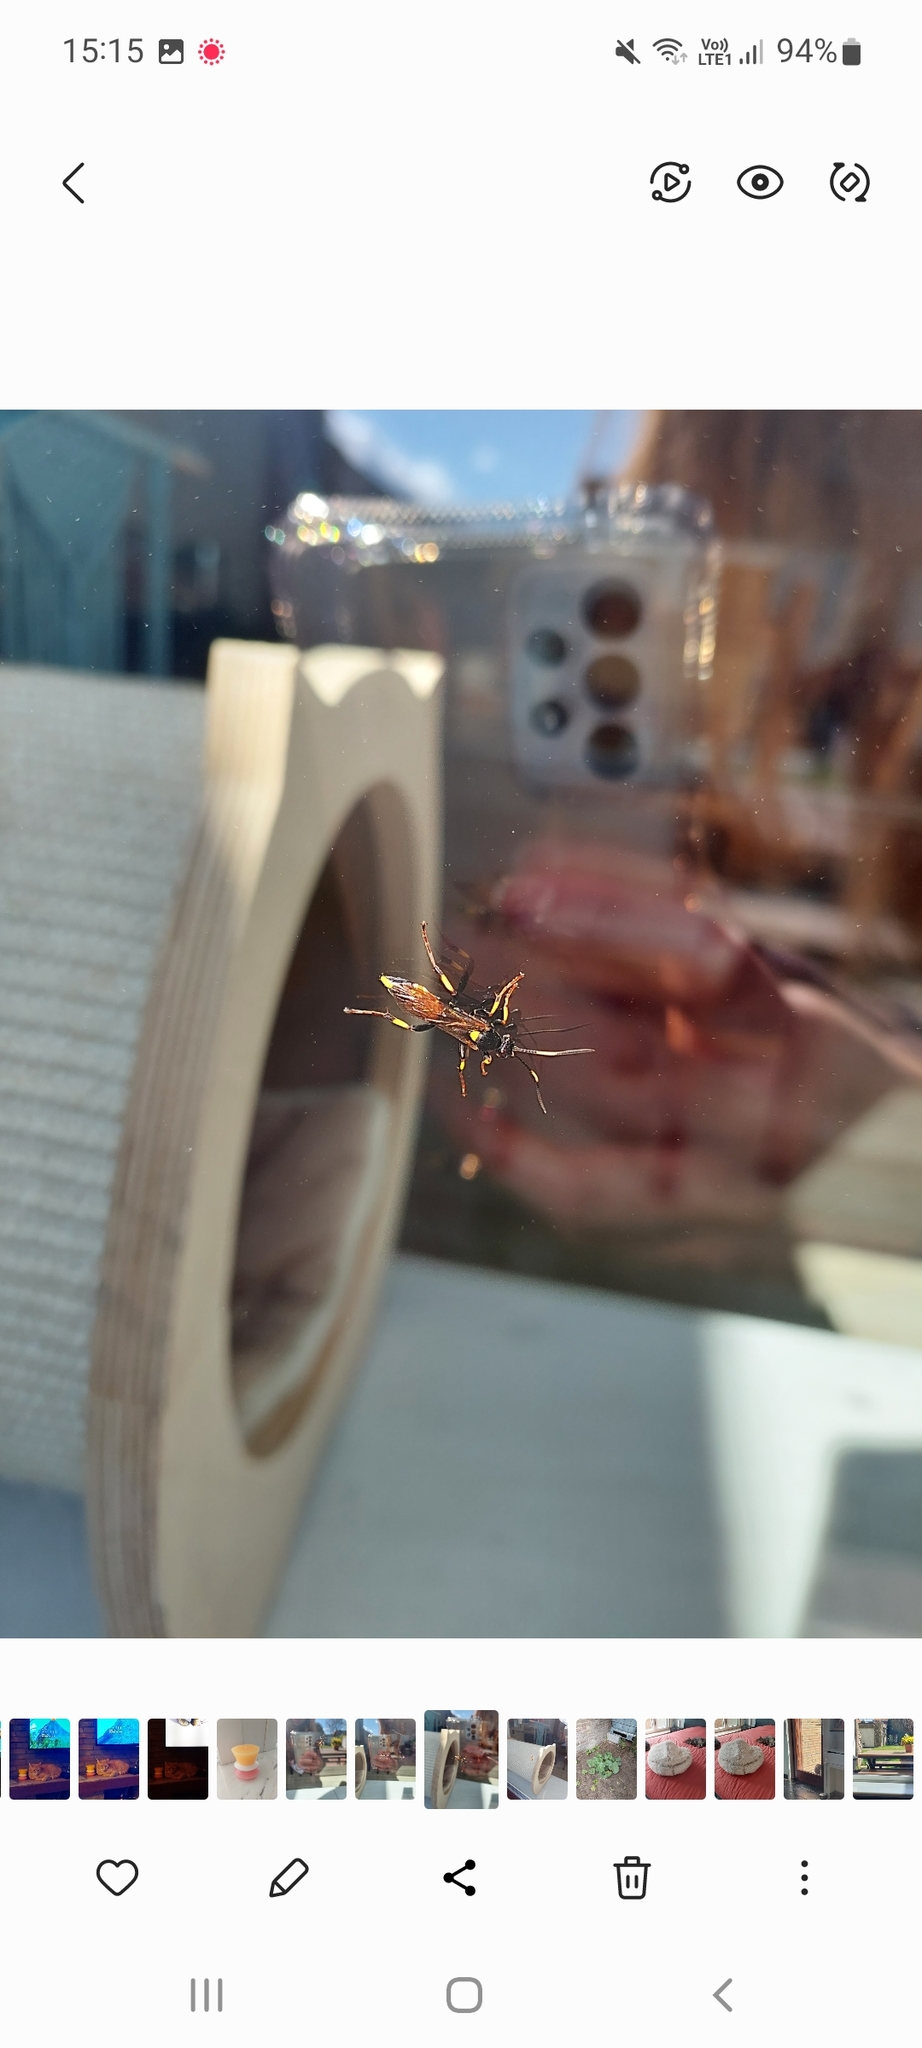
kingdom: Animalia
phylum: Arthropoda
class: Insecta
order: Hymenoptera
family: Ichneumonidae
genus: Ichneumon
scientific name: Ichneumon stramentor
